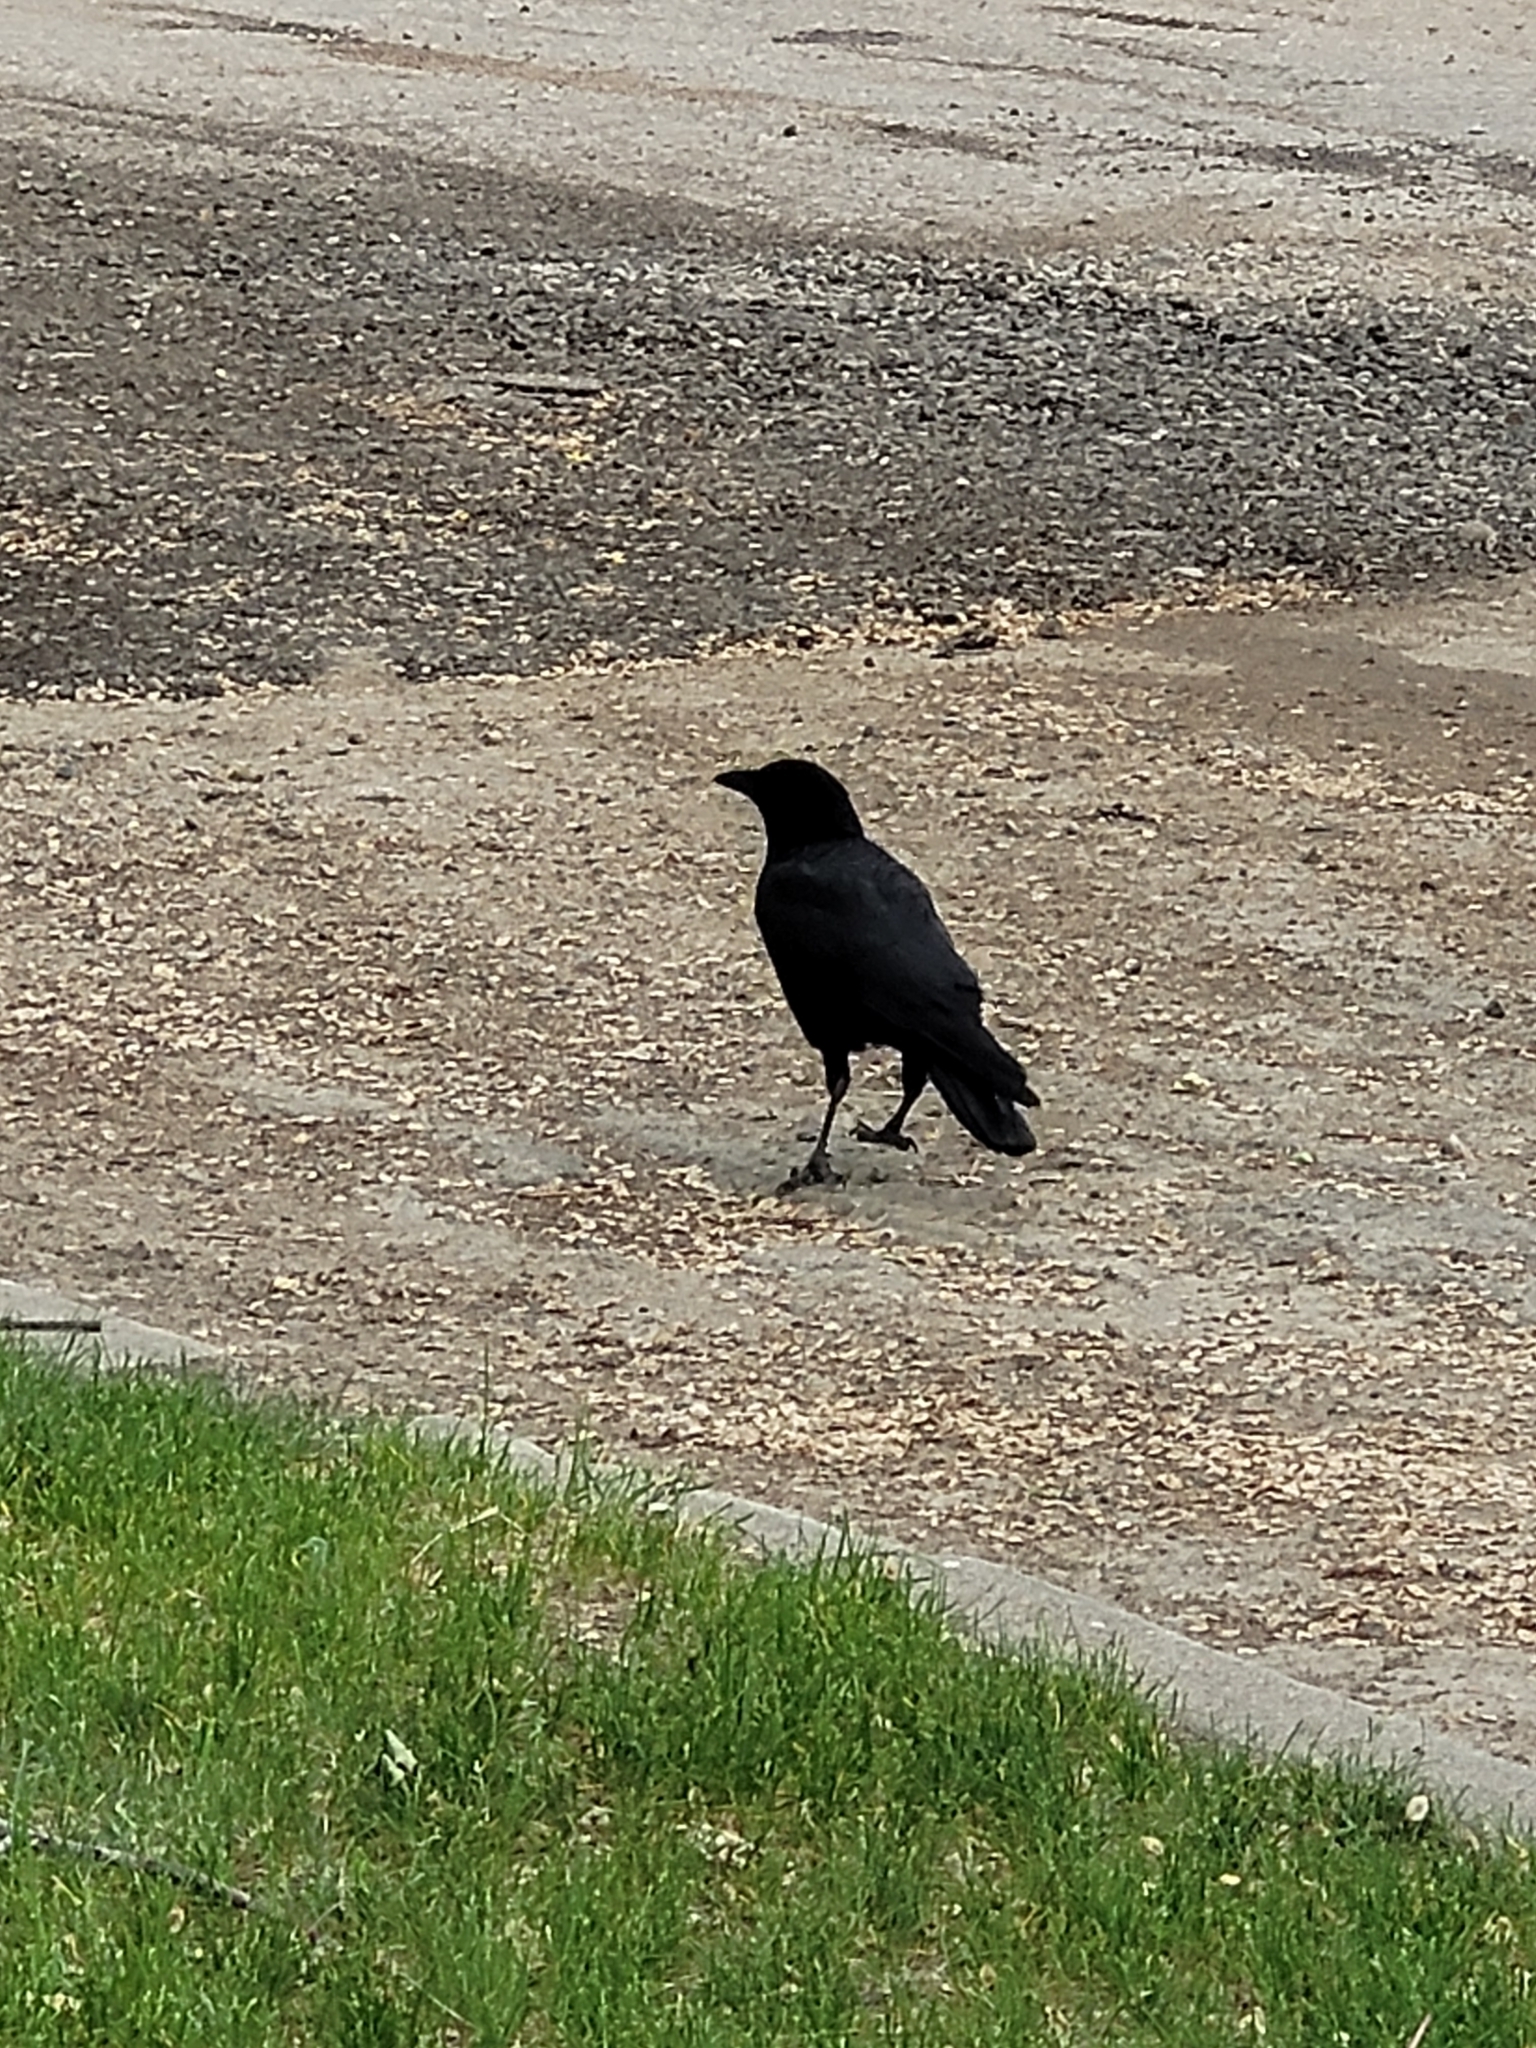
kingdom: Animalia
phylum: Chordata
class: Aves
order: Passeriformes
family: Corvidae
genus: Corvus
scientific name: Corvus brachyrhynchos
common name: American crow
